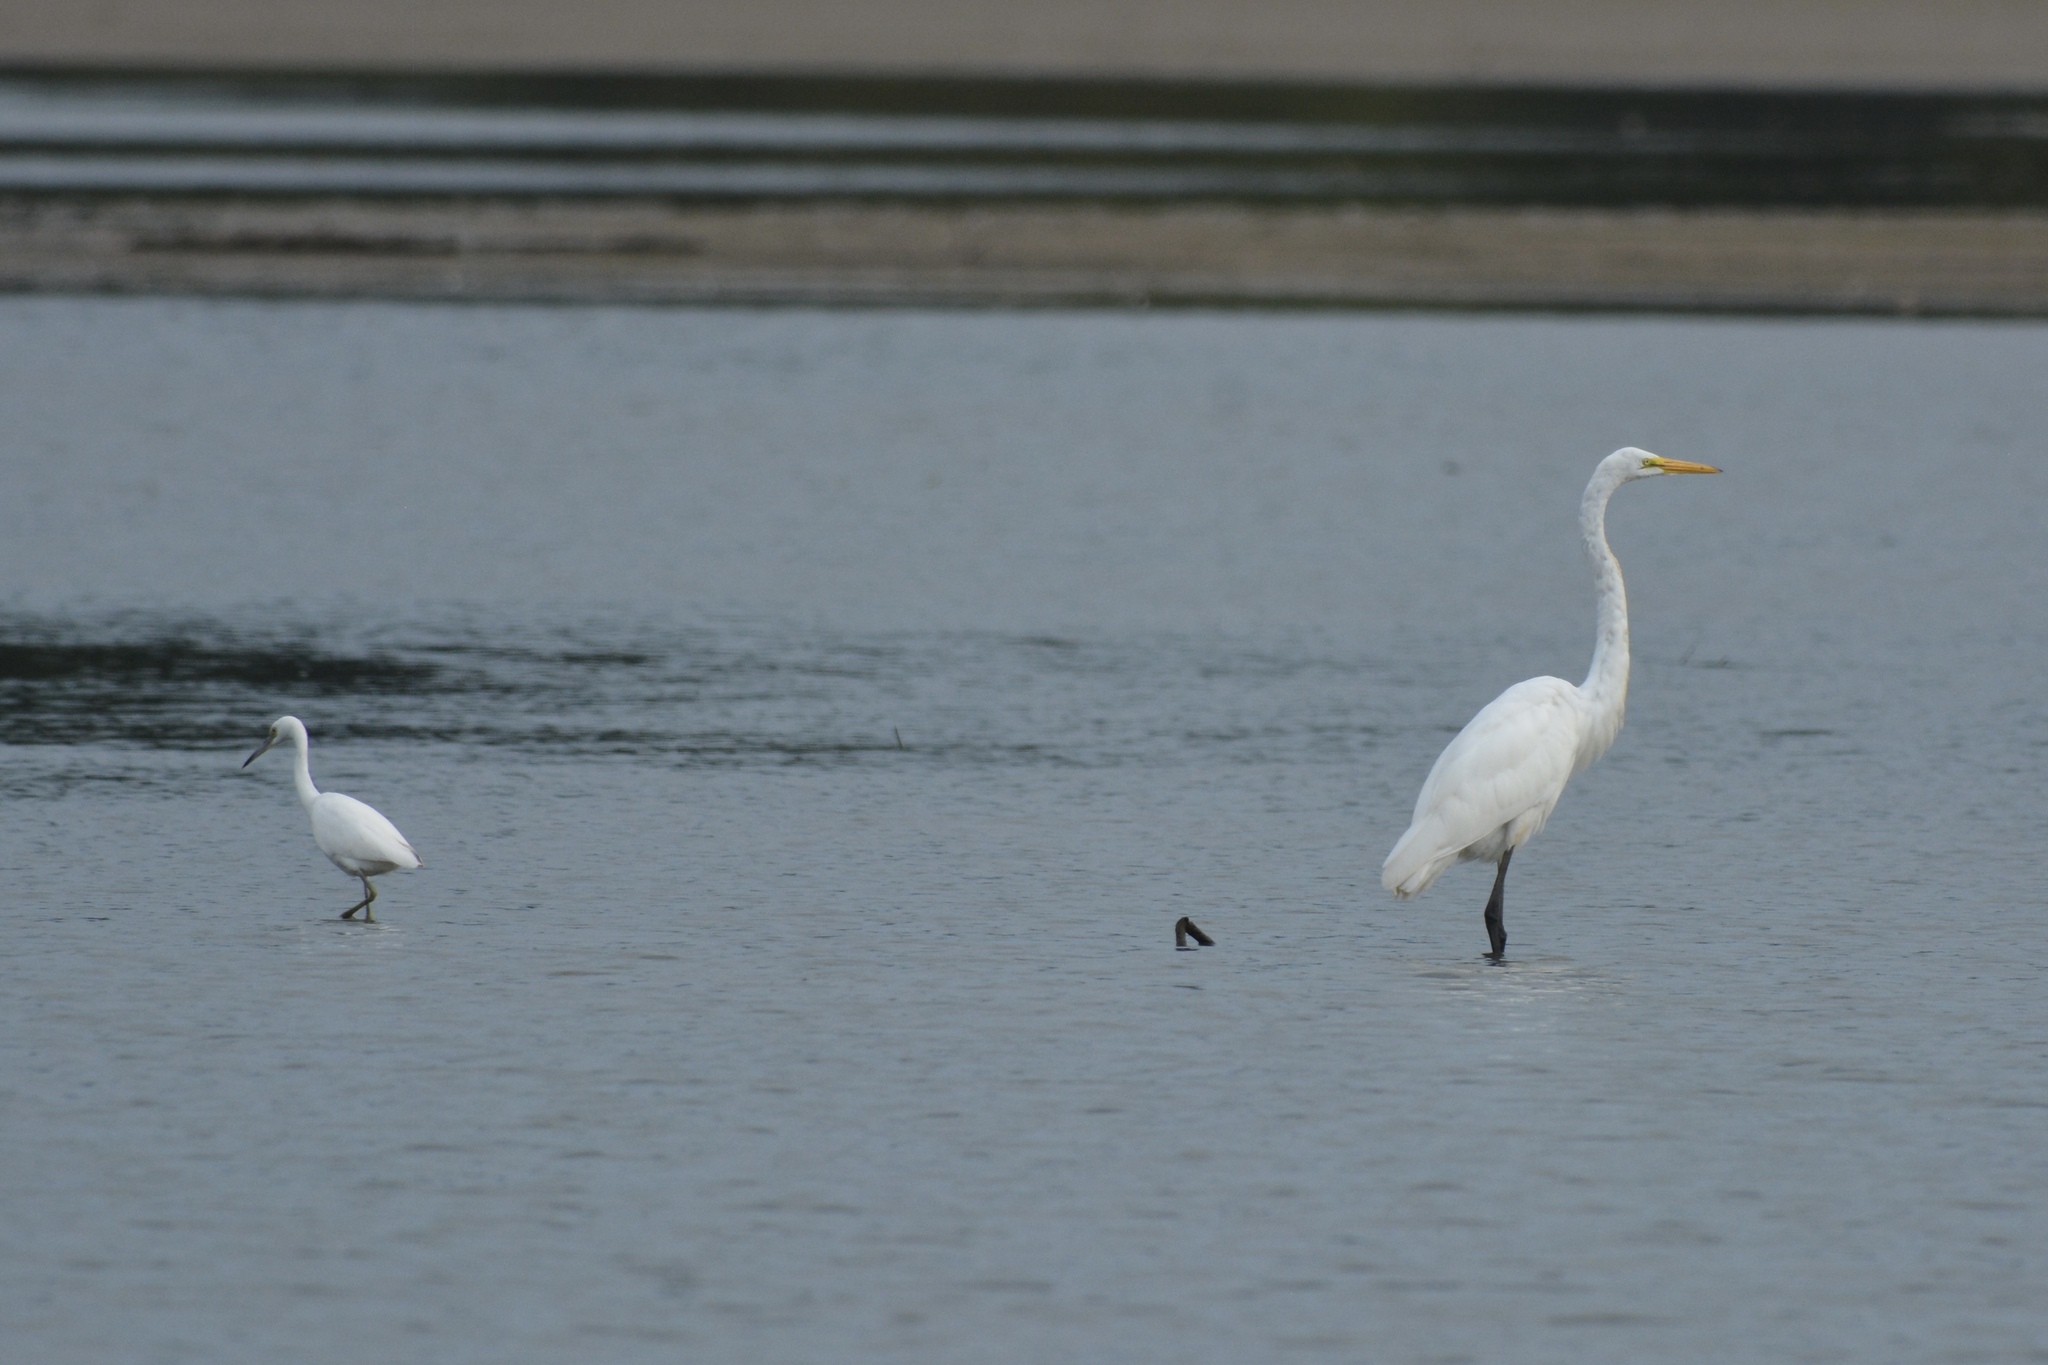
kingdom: Animalia
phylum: Chordata
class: Aves
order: Pelecaniformes
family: Ardeidae
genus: Ardea
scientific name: Ardea alba
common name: Great egret
